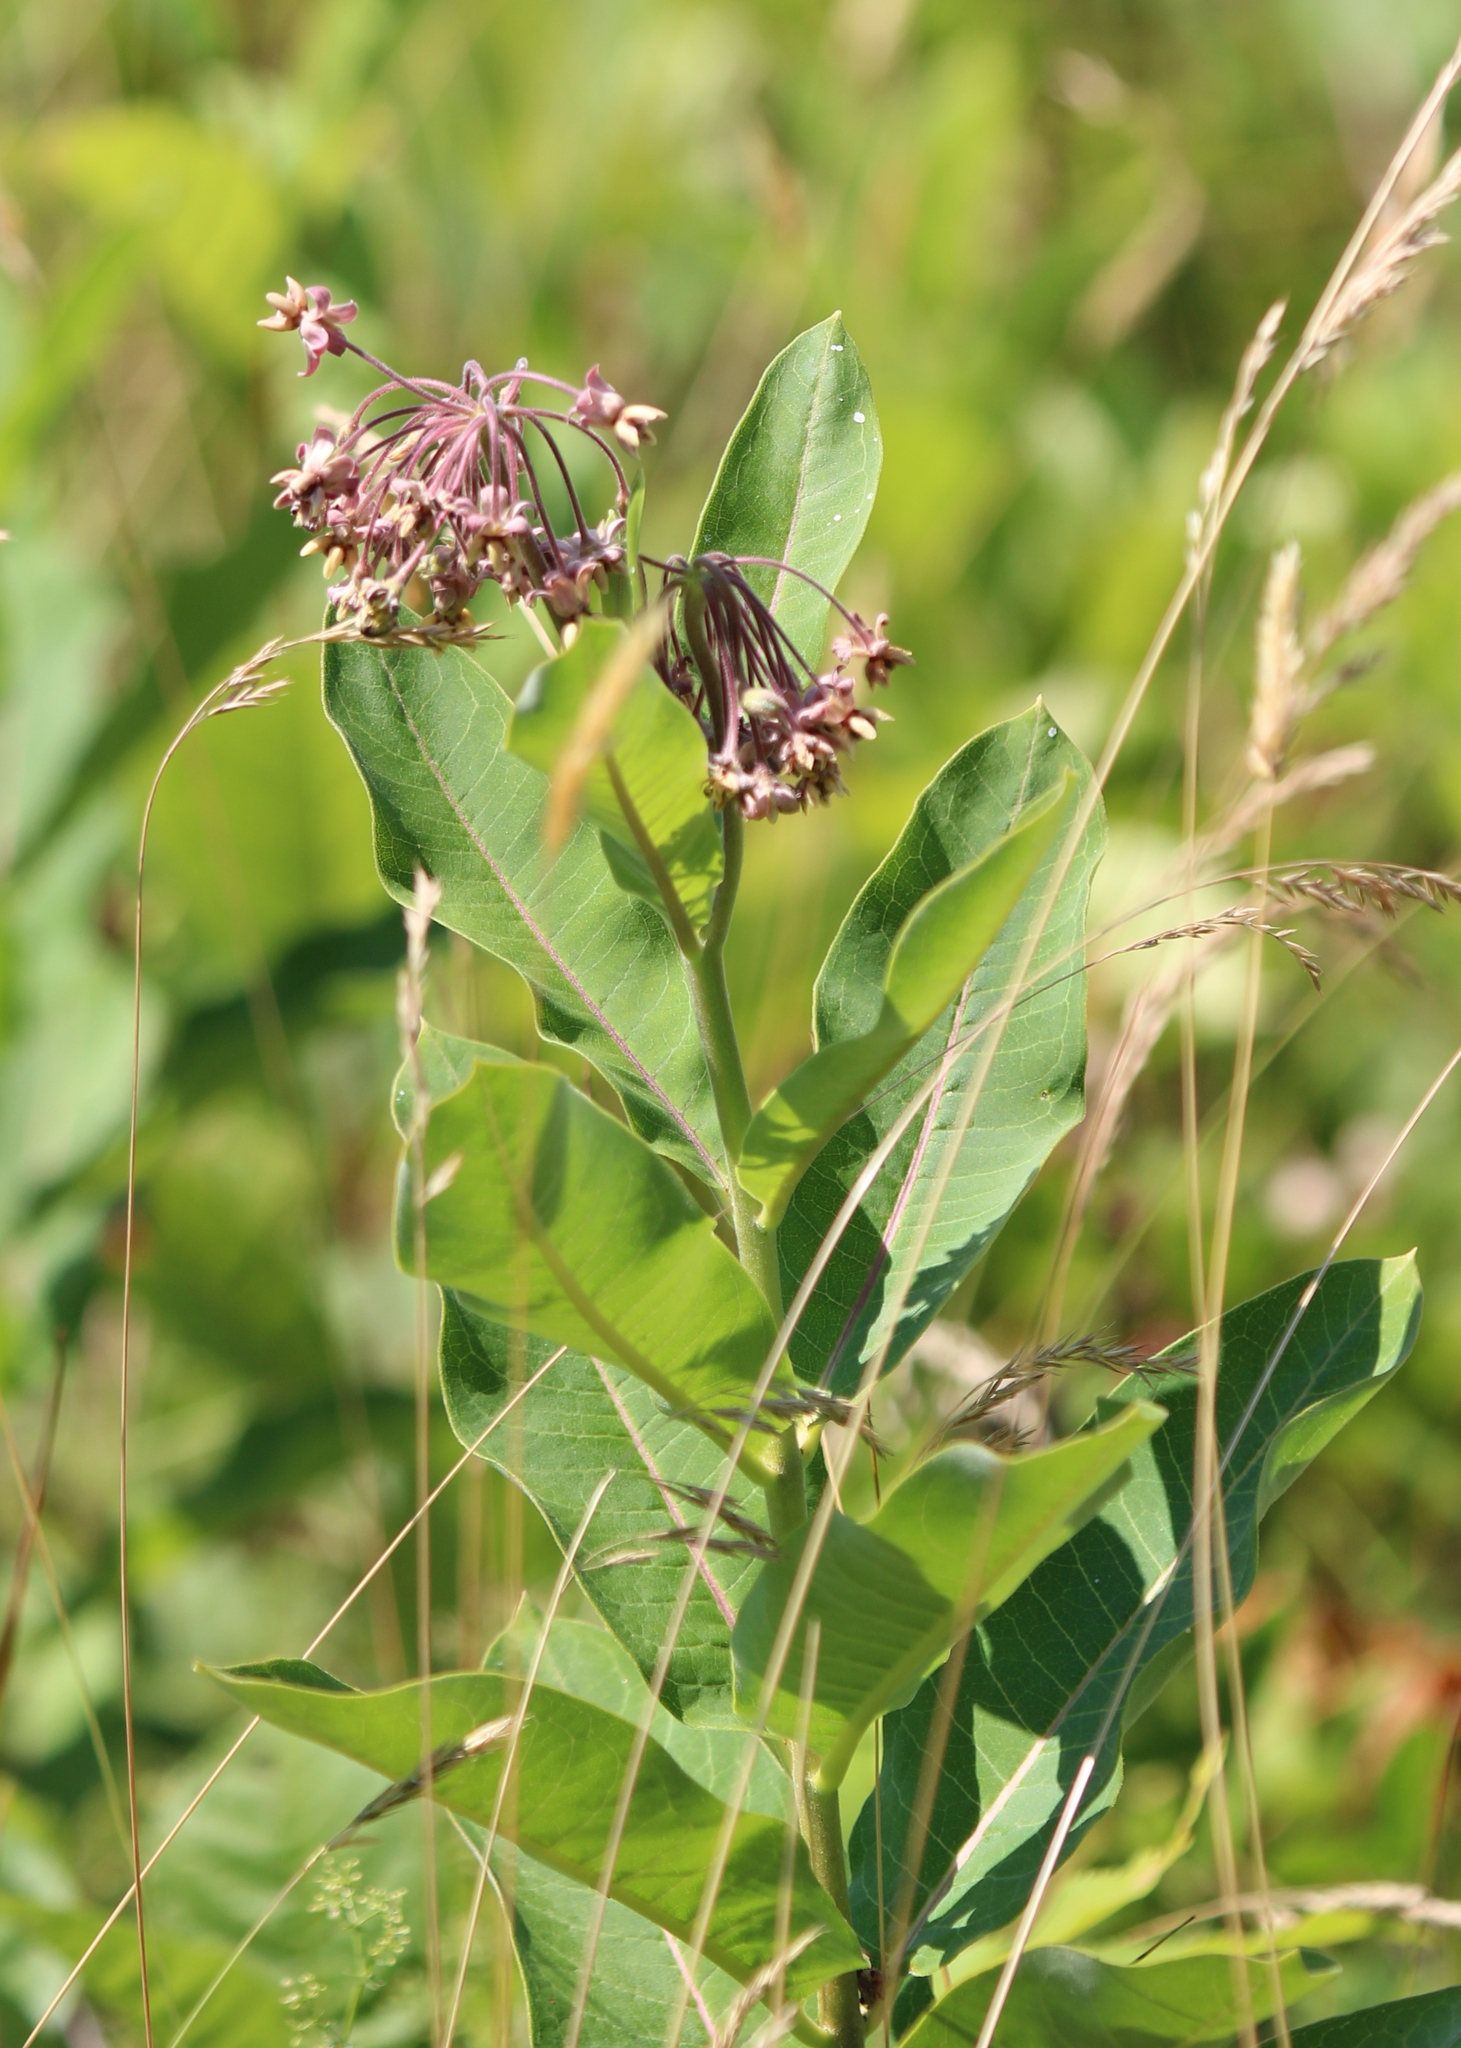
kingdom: Plantae
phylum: Tracheophyta
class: Magnoliopsida
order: Gentianales
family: Apocynaceae
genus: Asclepias
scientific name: Asclepias syriaca
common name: Common milkweed
